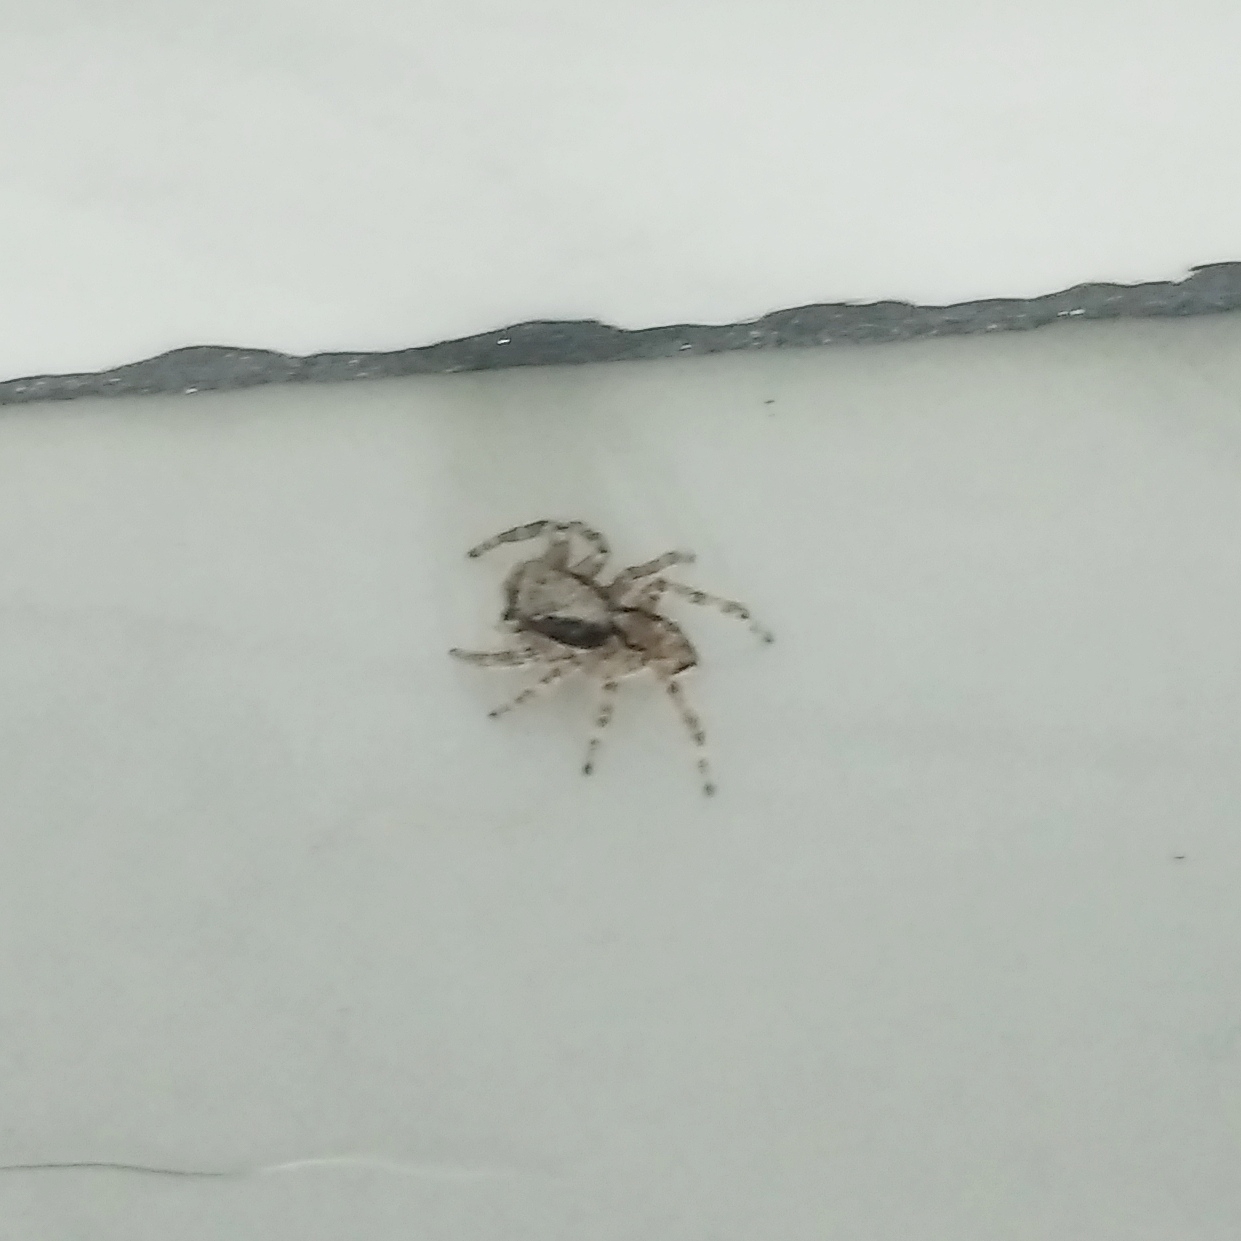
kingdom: Animalia
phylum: Arthropoda
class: Arachnida
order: Araneae
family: Salticidae
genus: Menemerus
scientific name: Menemerus bivittatus
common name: Gray wall jumper
